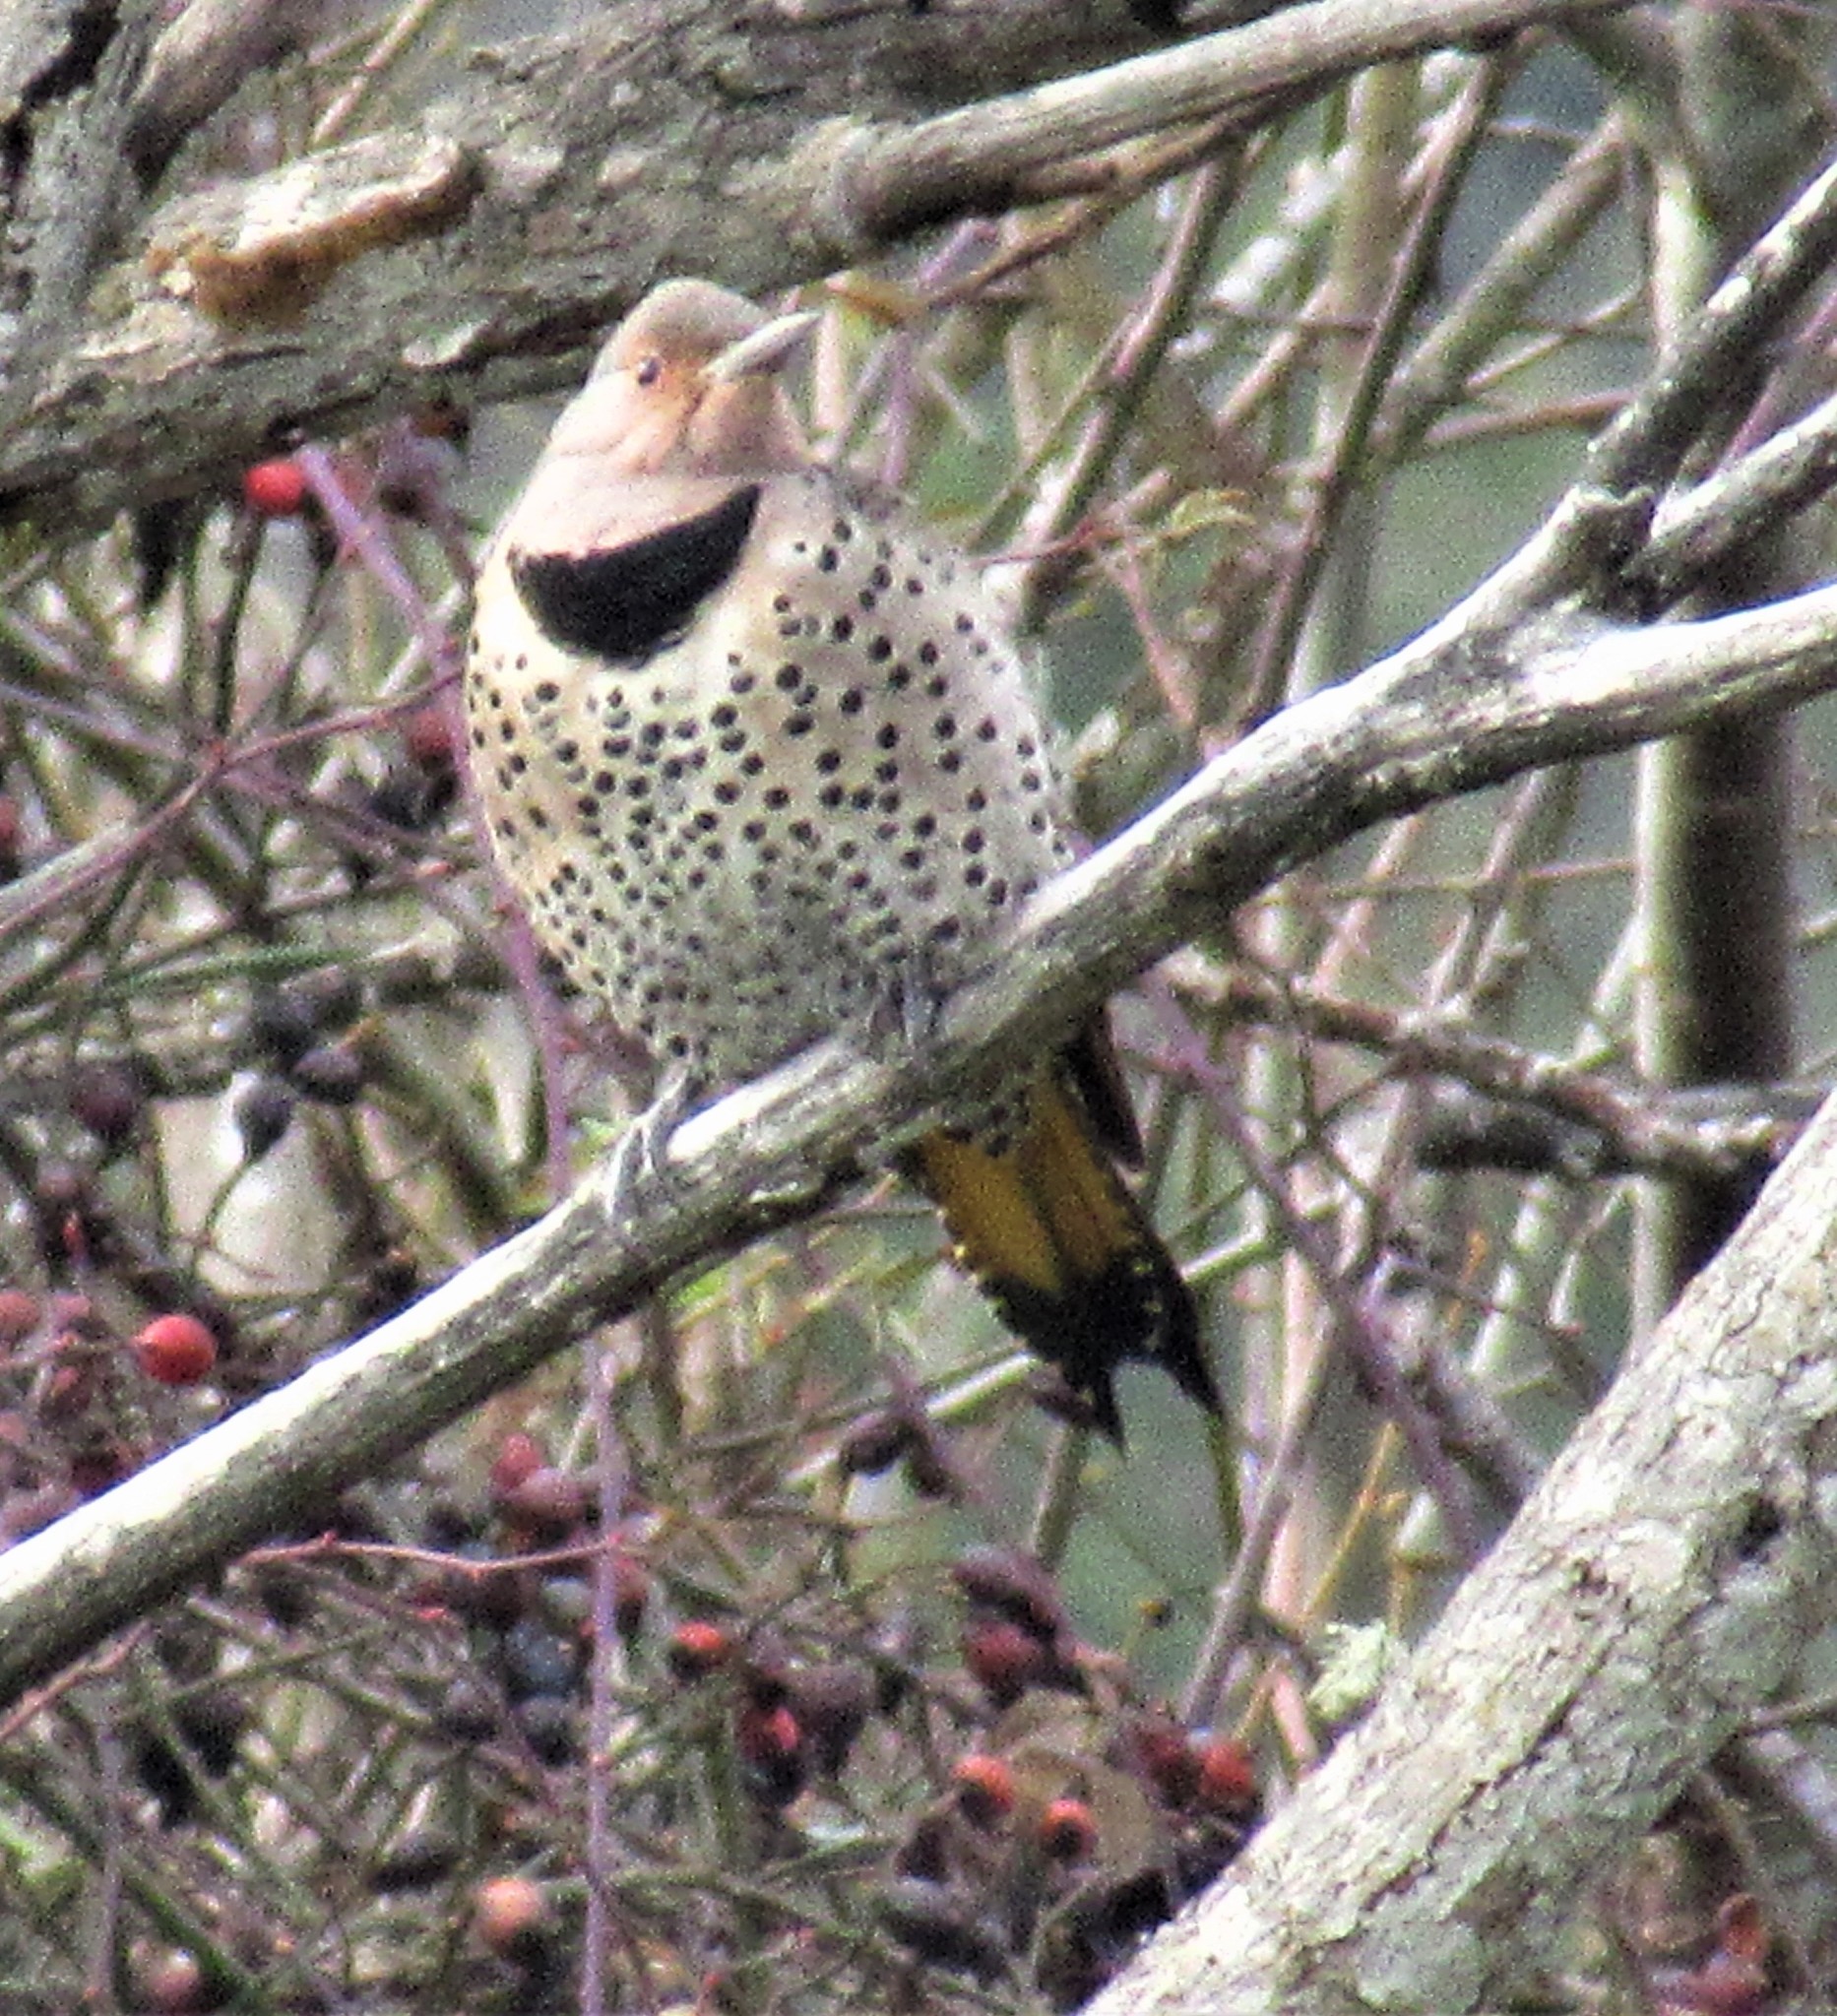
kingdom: Animalia
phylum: Chordata
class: Aves
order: Piciformes
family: Picidae
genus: Colaptes
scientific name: Colaptes auratus
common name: Northern flicker
